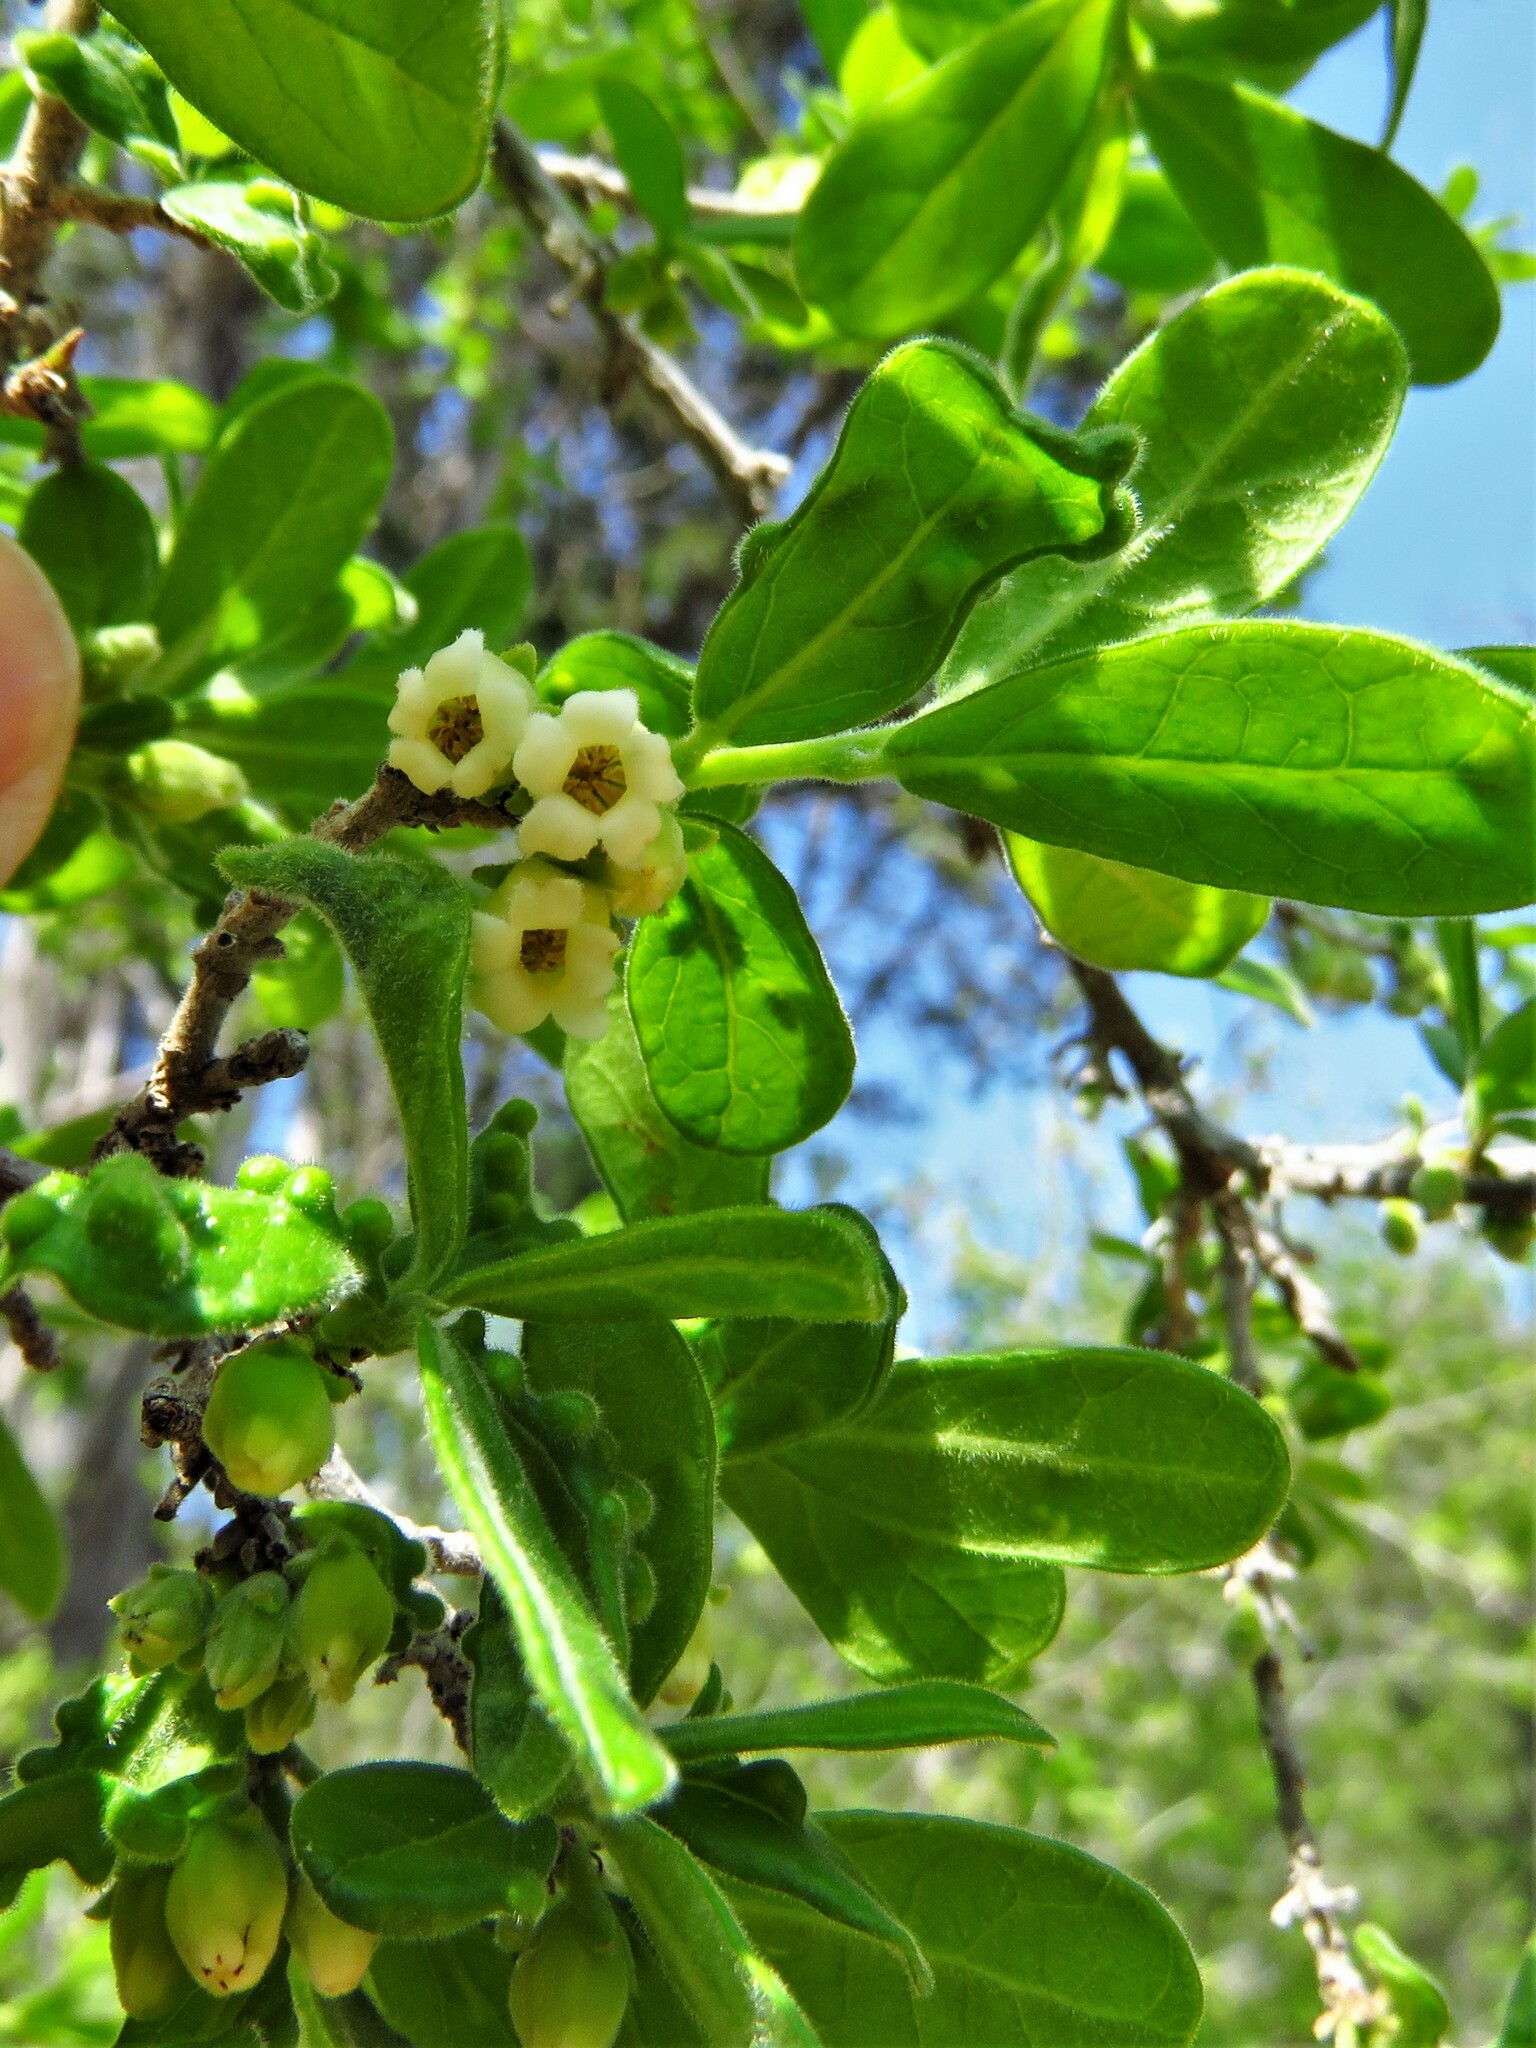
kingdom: Plantae
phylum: Tracheophyta
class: Magnoliopsida
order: Ericales
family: Ebenaceae
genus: Diospyros
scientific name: Diospyros texana
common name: Texas persimmon
